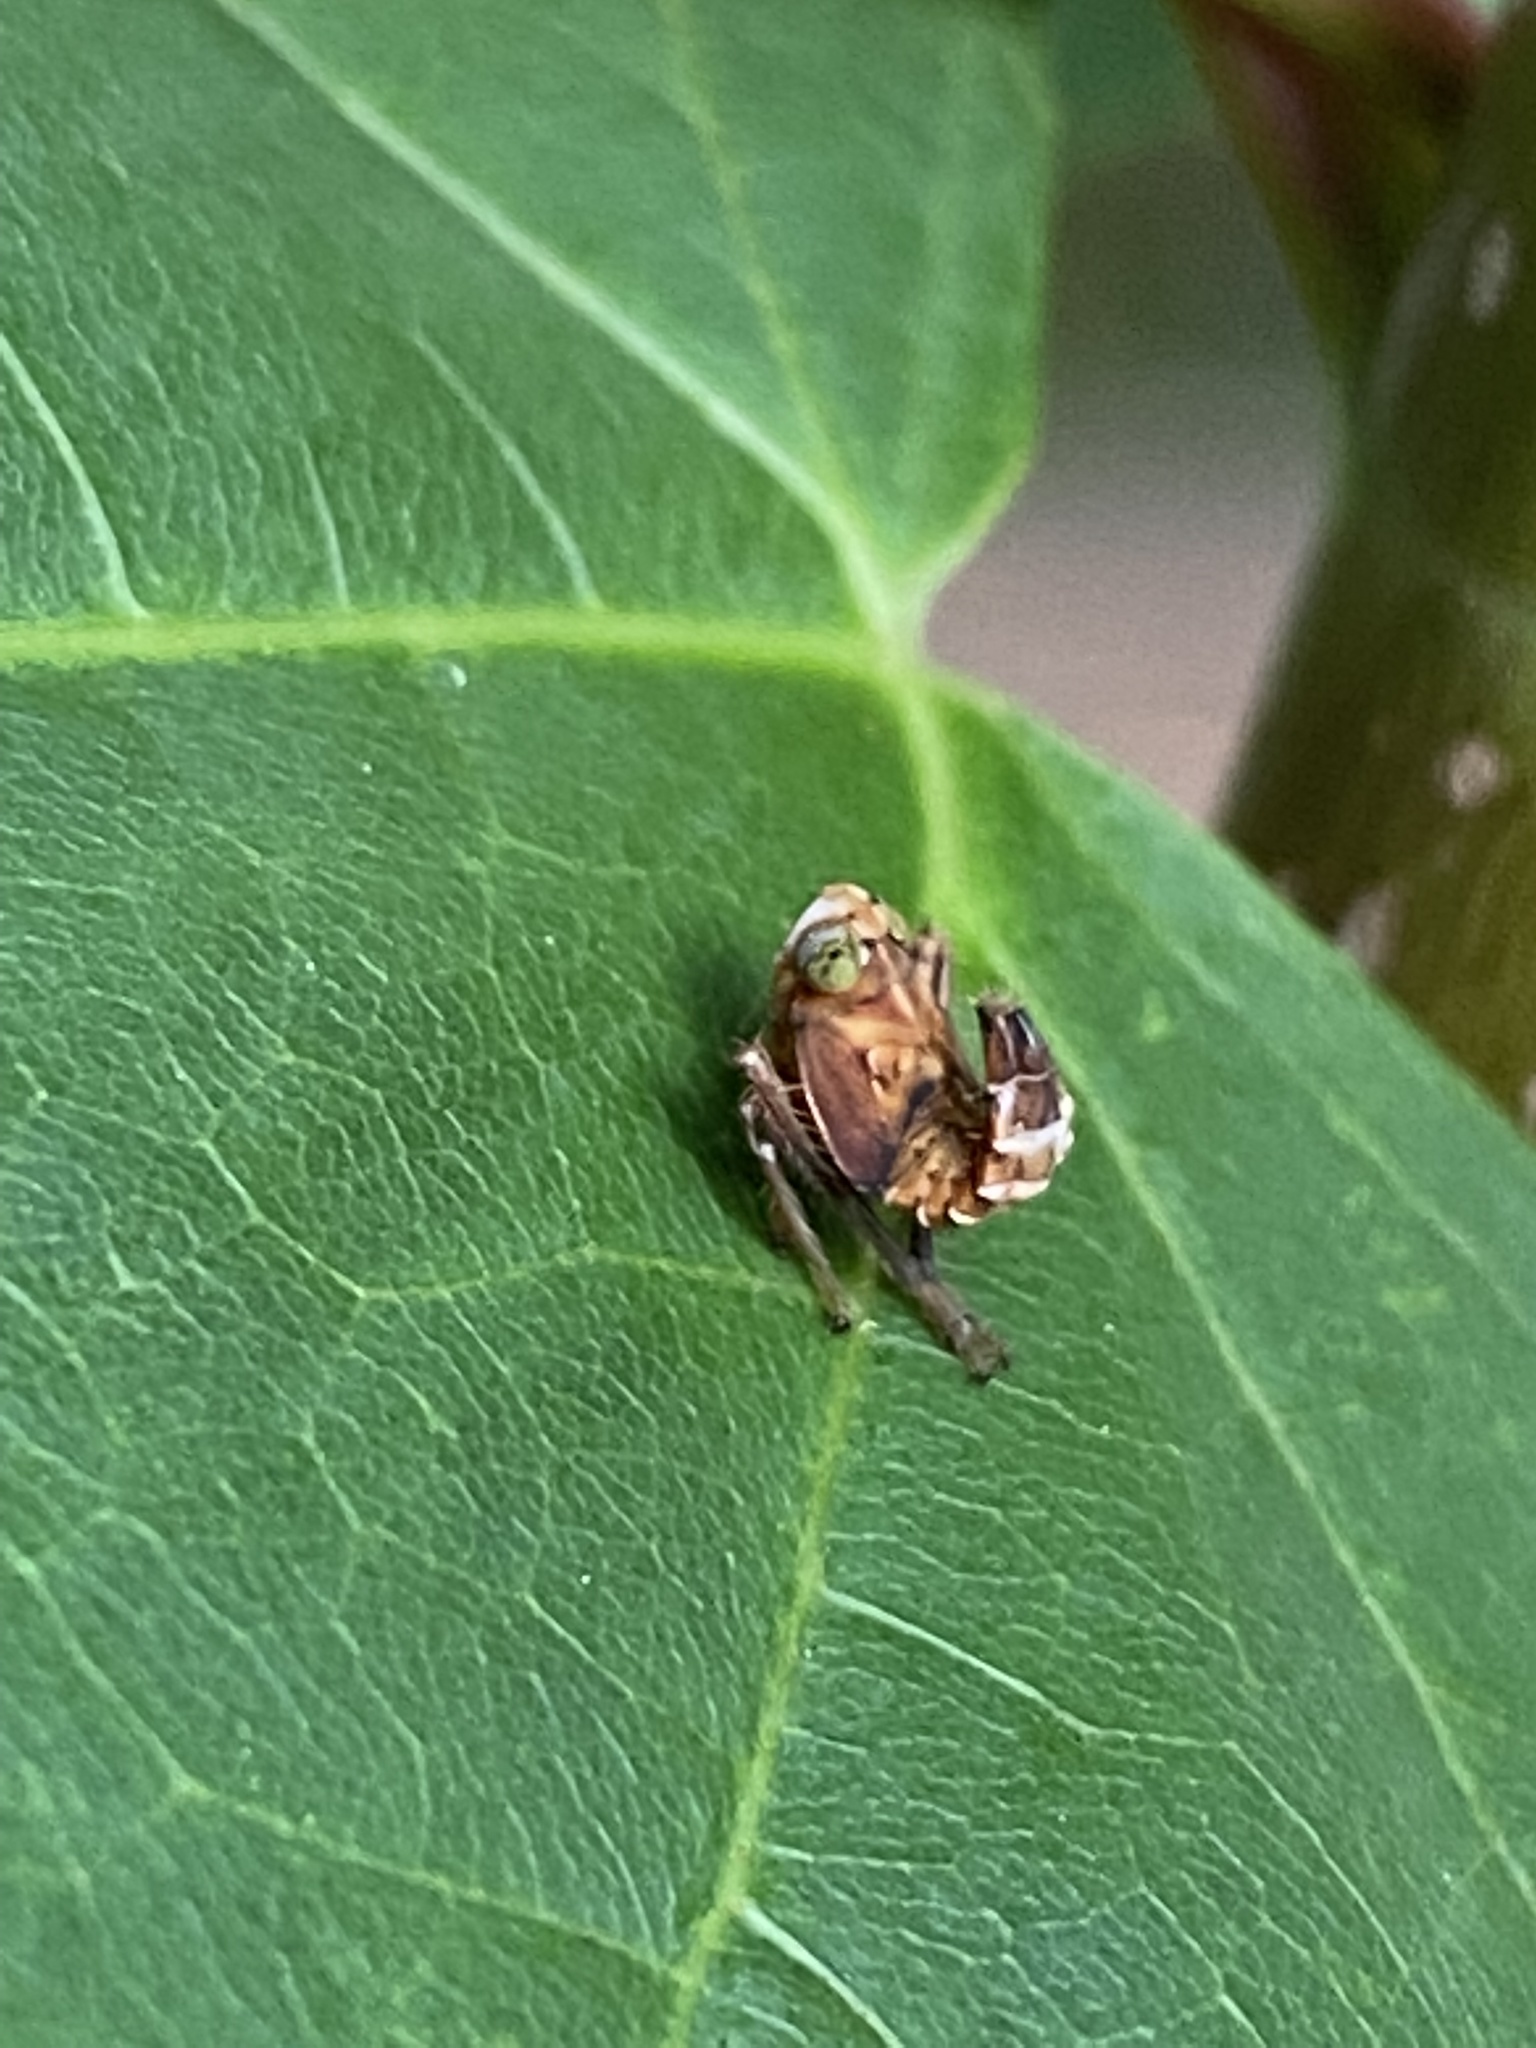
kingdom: Animalia
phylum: Arthropoda
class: Insecta
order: Hemiptera
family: Cicadellidae
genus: Jikradia
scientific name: Jikradia olitoria
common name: Coppery leafhopper
